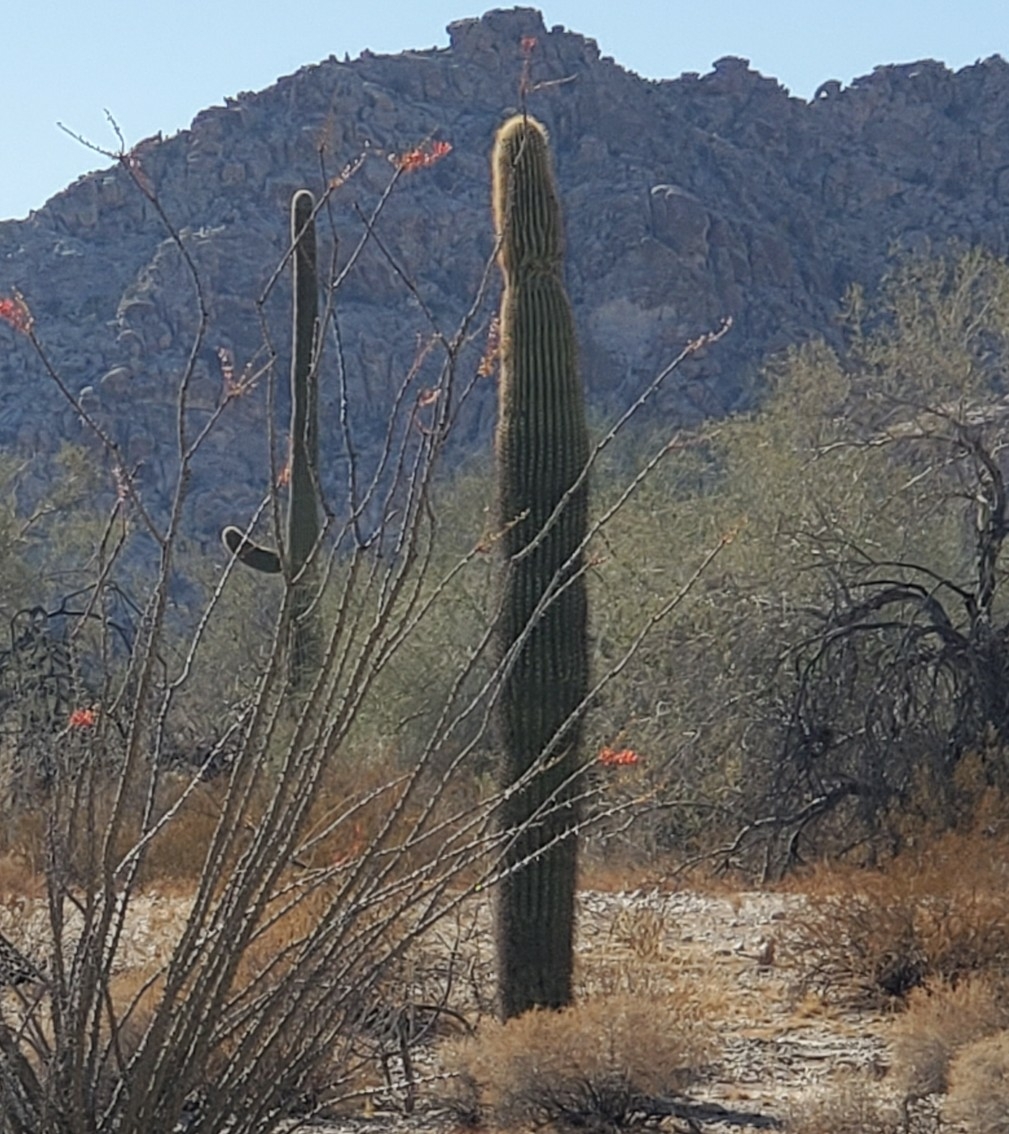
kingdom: Plantae
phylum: Tracheophyta
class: Magnoliopsida
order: Caryophyllales
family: Cactaceae
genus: Carnegiea
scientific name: Carnegiea gigantea
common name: Saguaro
